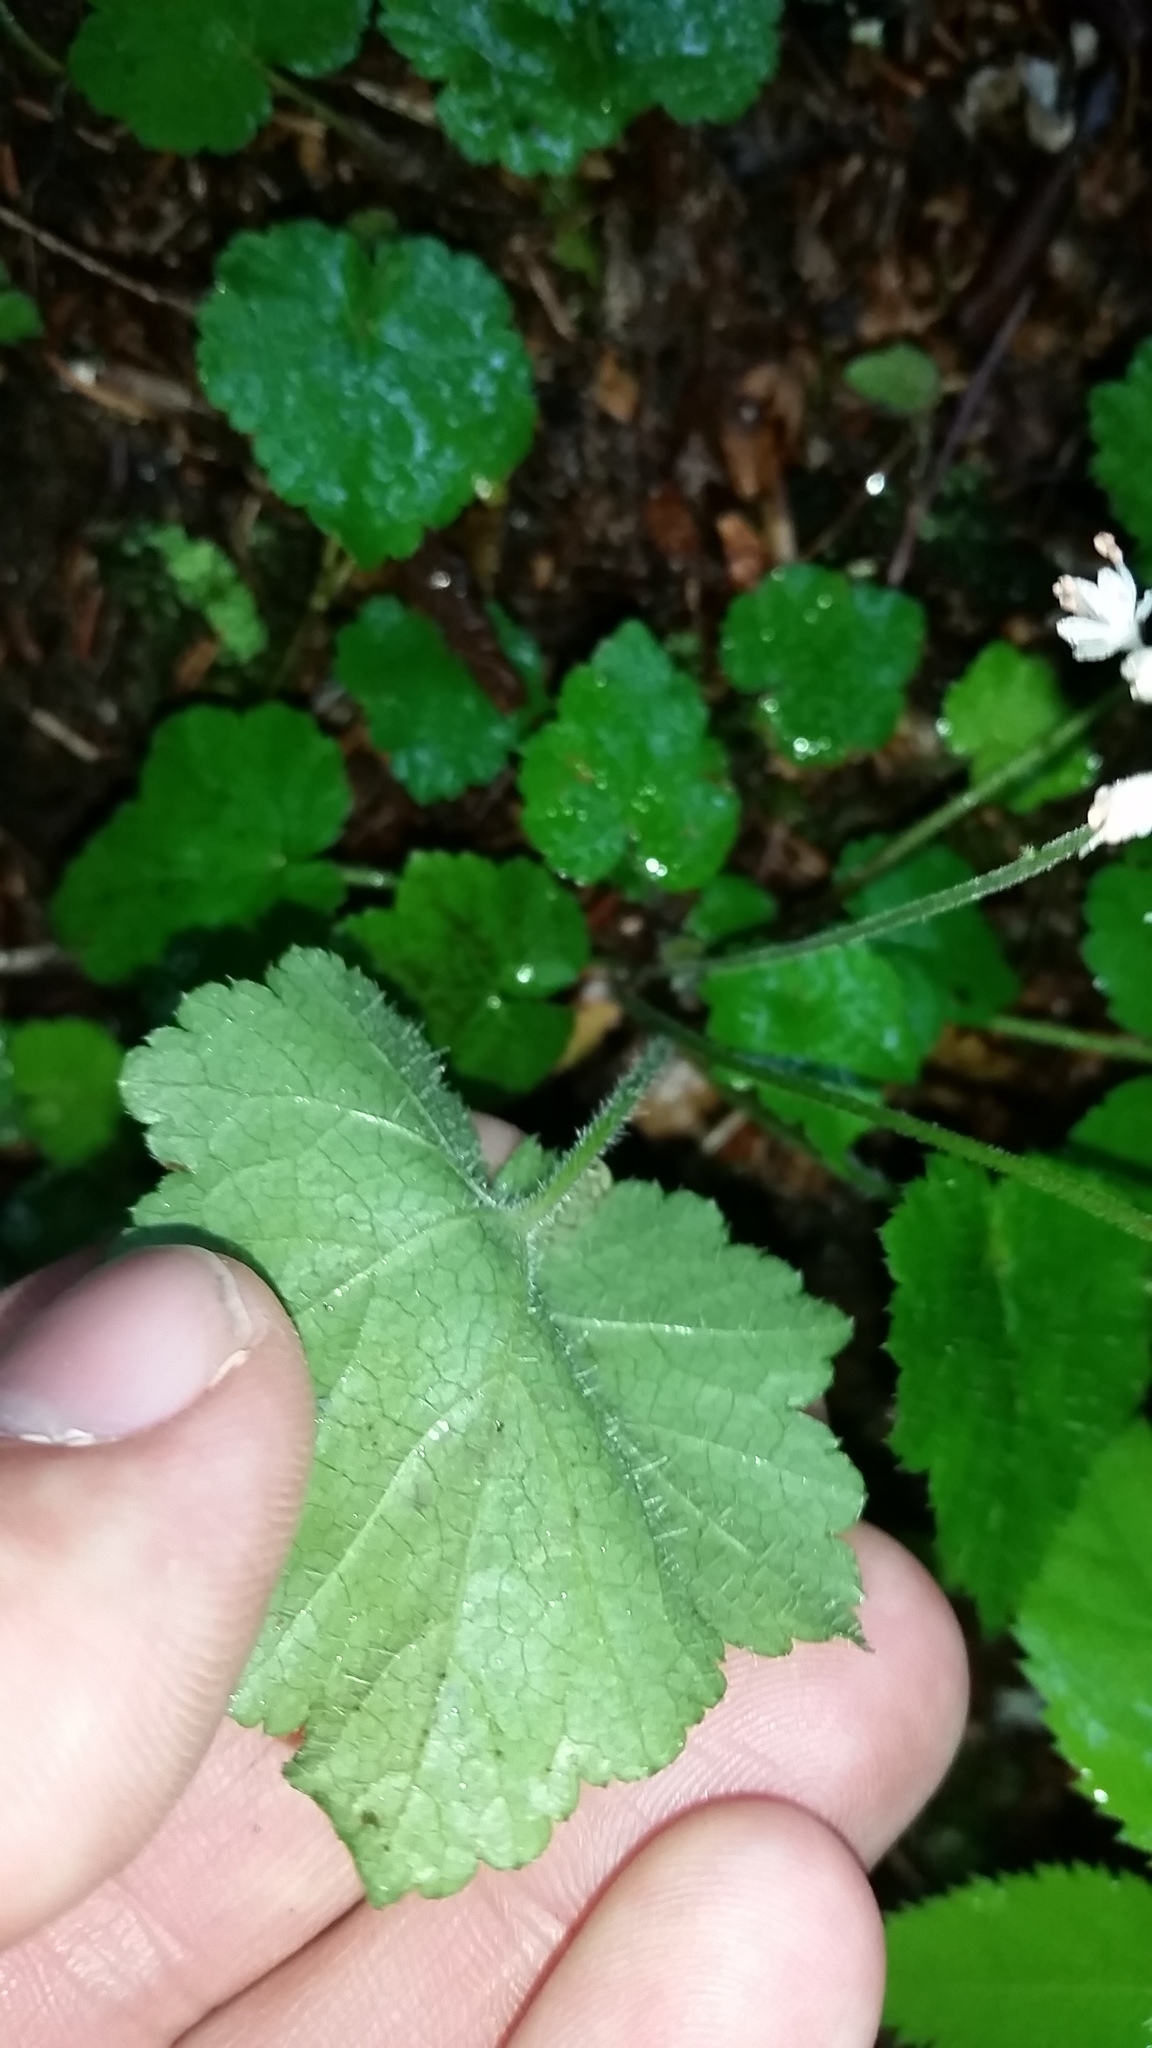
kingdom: Plantae
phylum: Tracheophyta
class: Magnoliopsida
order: Saxifragales
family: Saxifragaceae
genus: Tiarella
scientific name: Tiarella austrina
